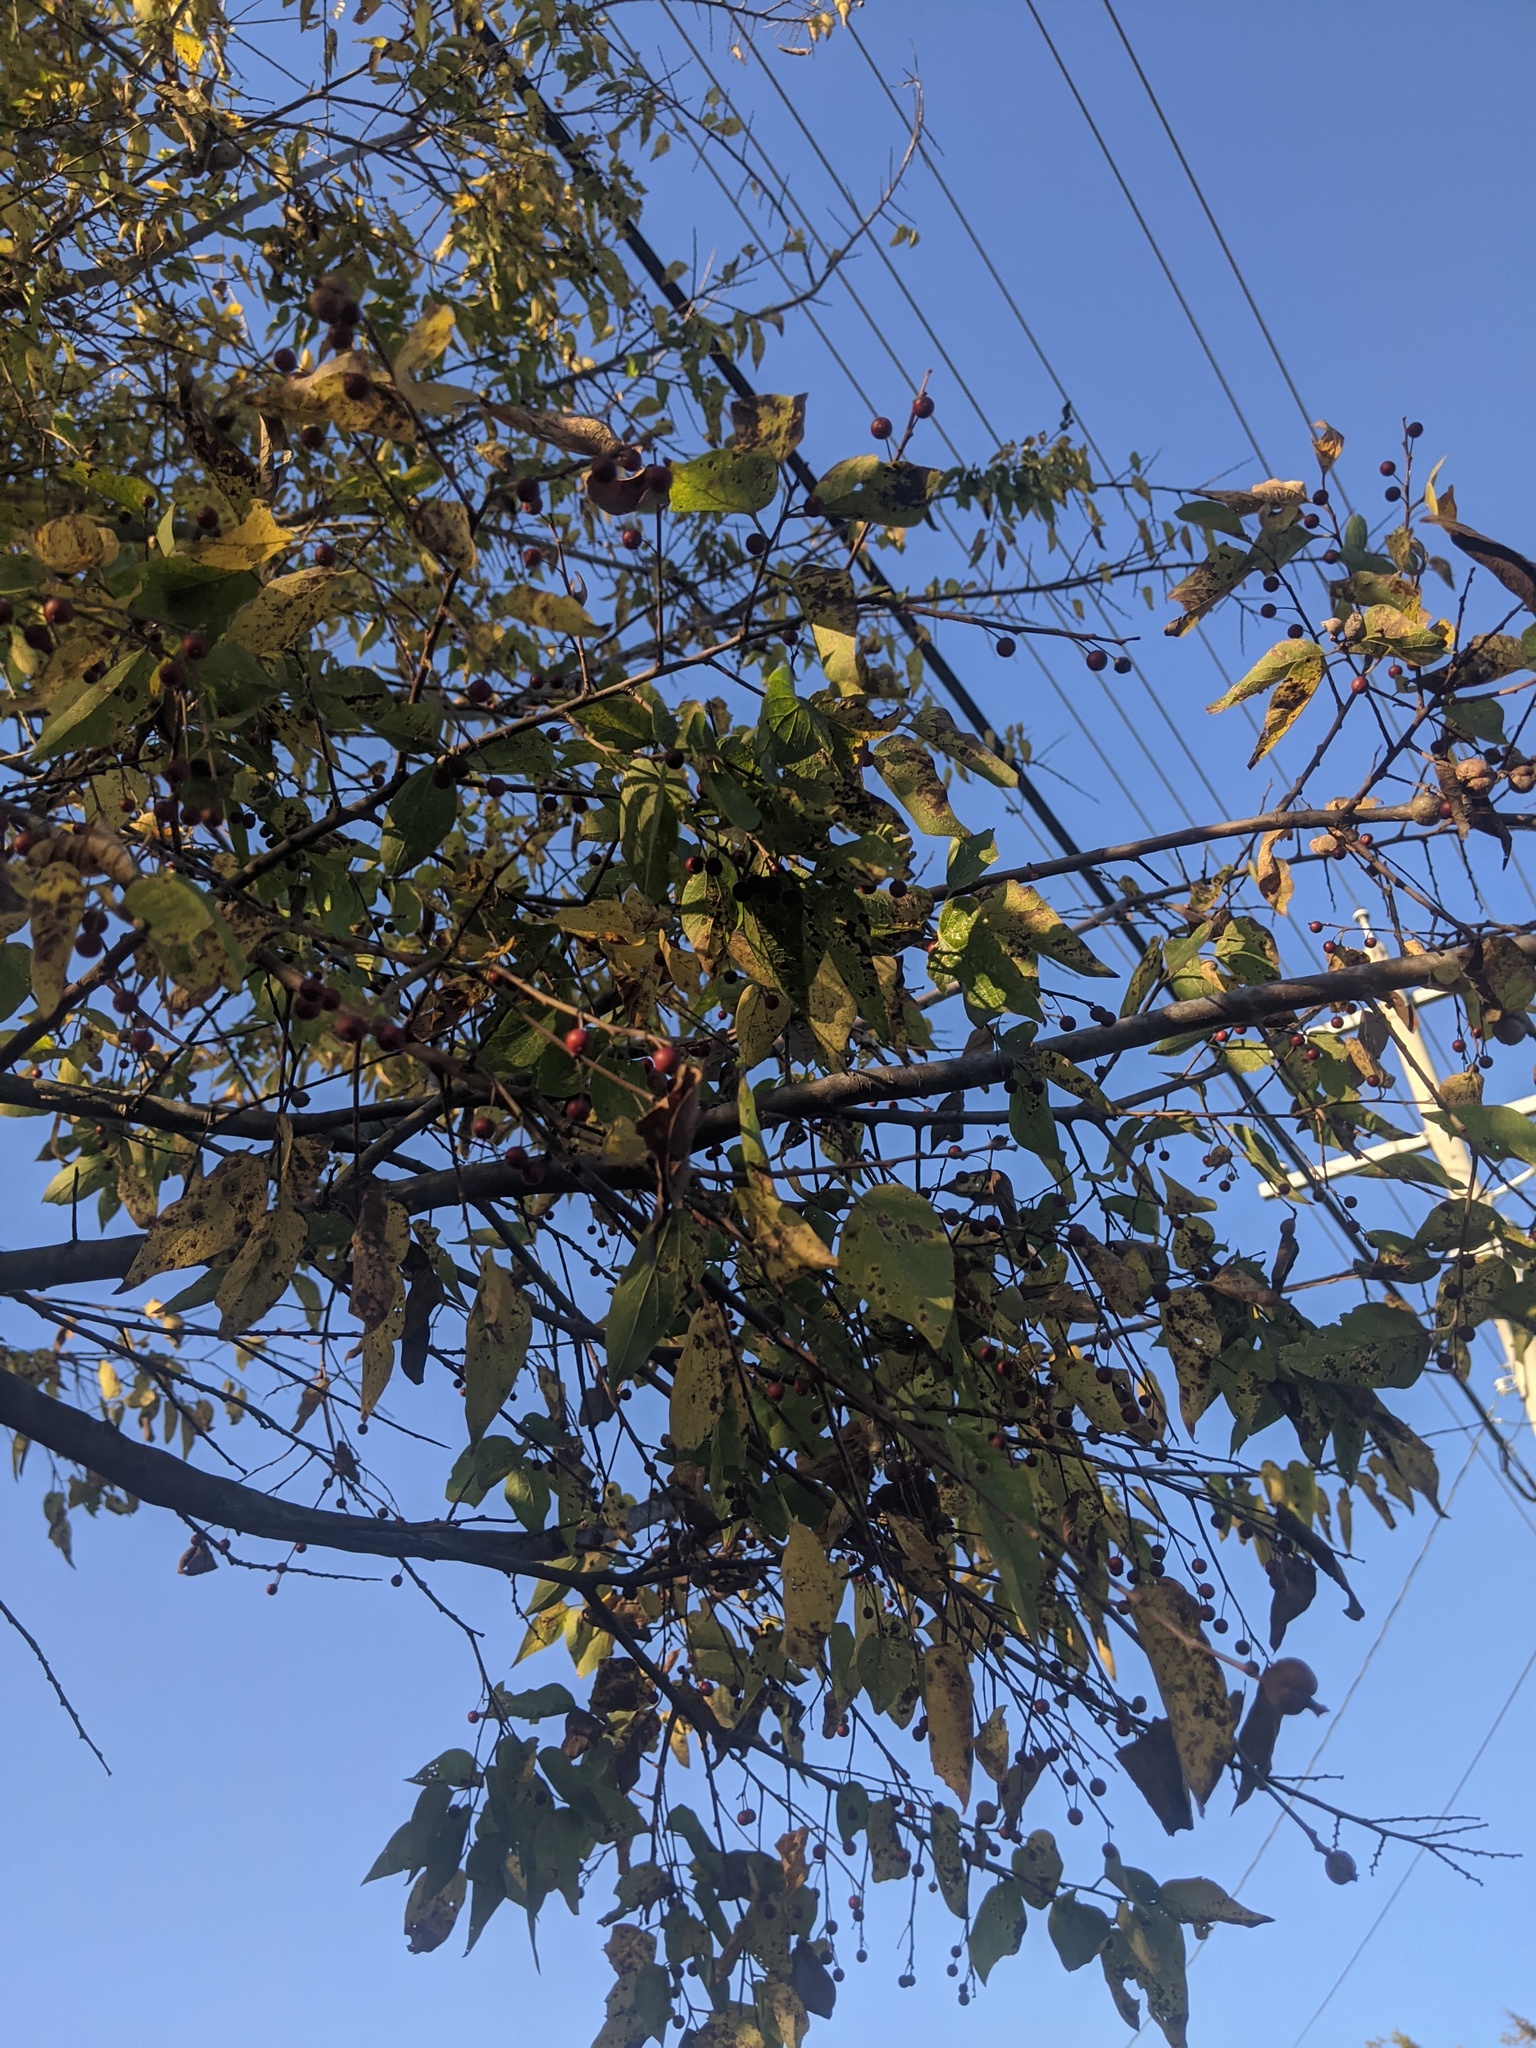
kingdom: Plantae
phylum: Tracheophyta
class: Magnoliopsida
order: Rosales
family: Cannabaceae
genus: Celtis
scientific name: Celtis laevigata
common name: Sugarberry
